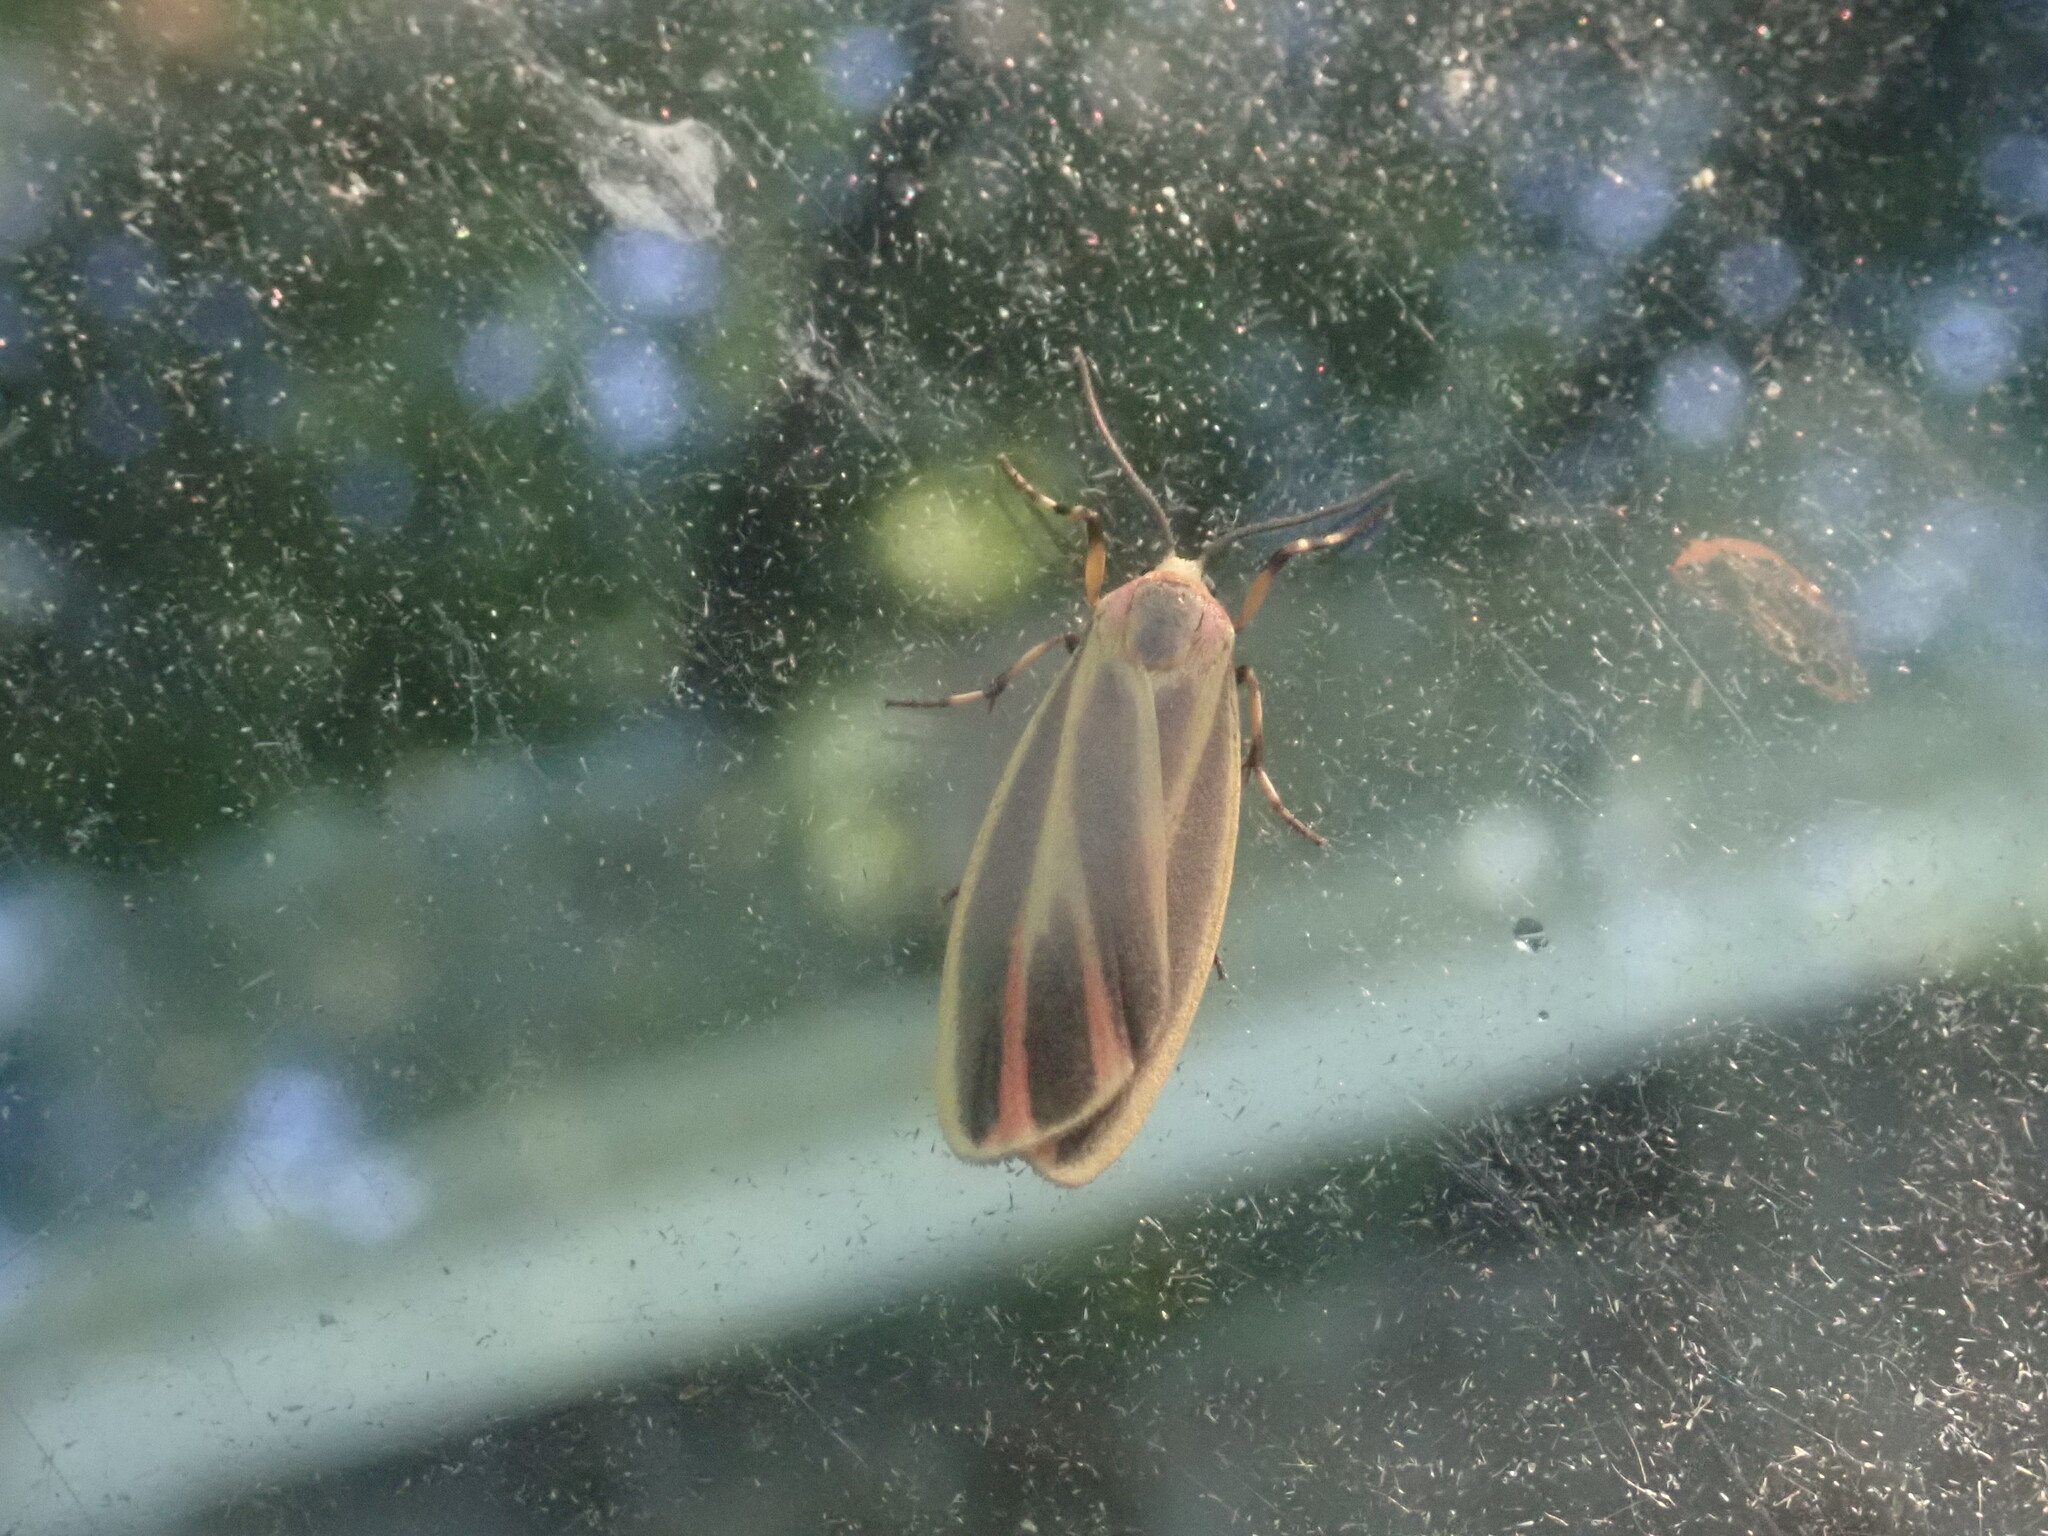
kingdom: Animalia
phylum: Arthropoda
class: Insecta
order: Lepidoptera
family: Erebidae
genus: Hypoprepia
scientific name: Hypoprepia fucosa
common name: Painted lichen moth
